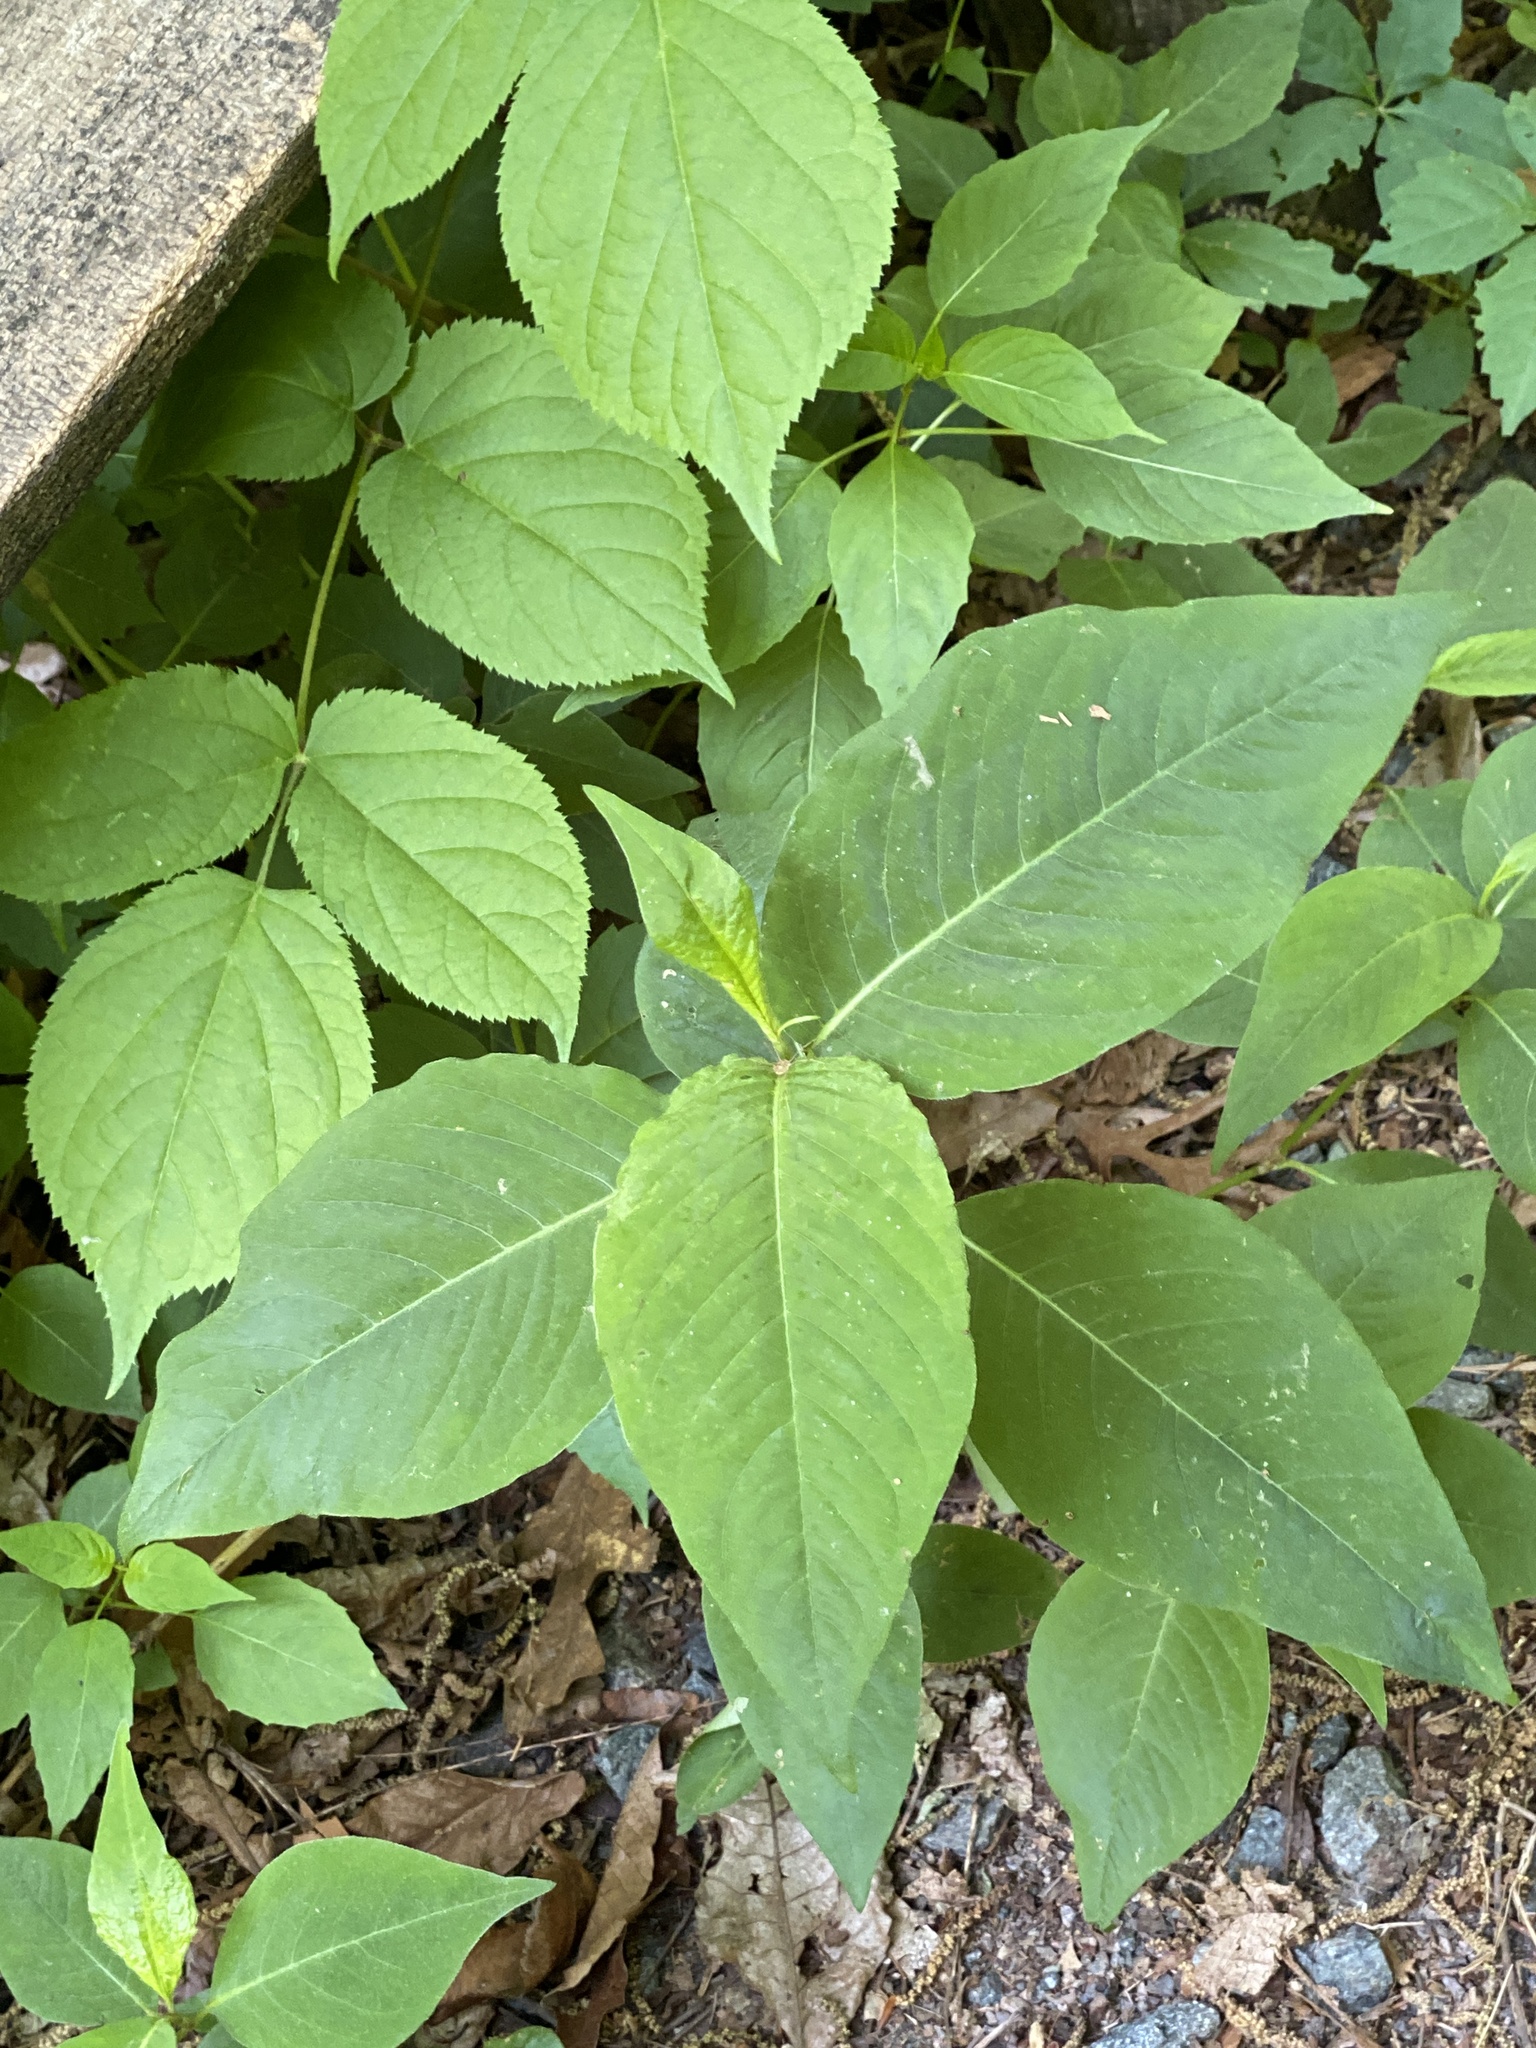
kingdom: Plantae
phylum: Tracheophyta
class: Magnoliopsida
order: Caryophyllales
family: Polygonaceae
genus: Persicaria
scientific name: Persicaria virginiana
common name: Jumpseed
